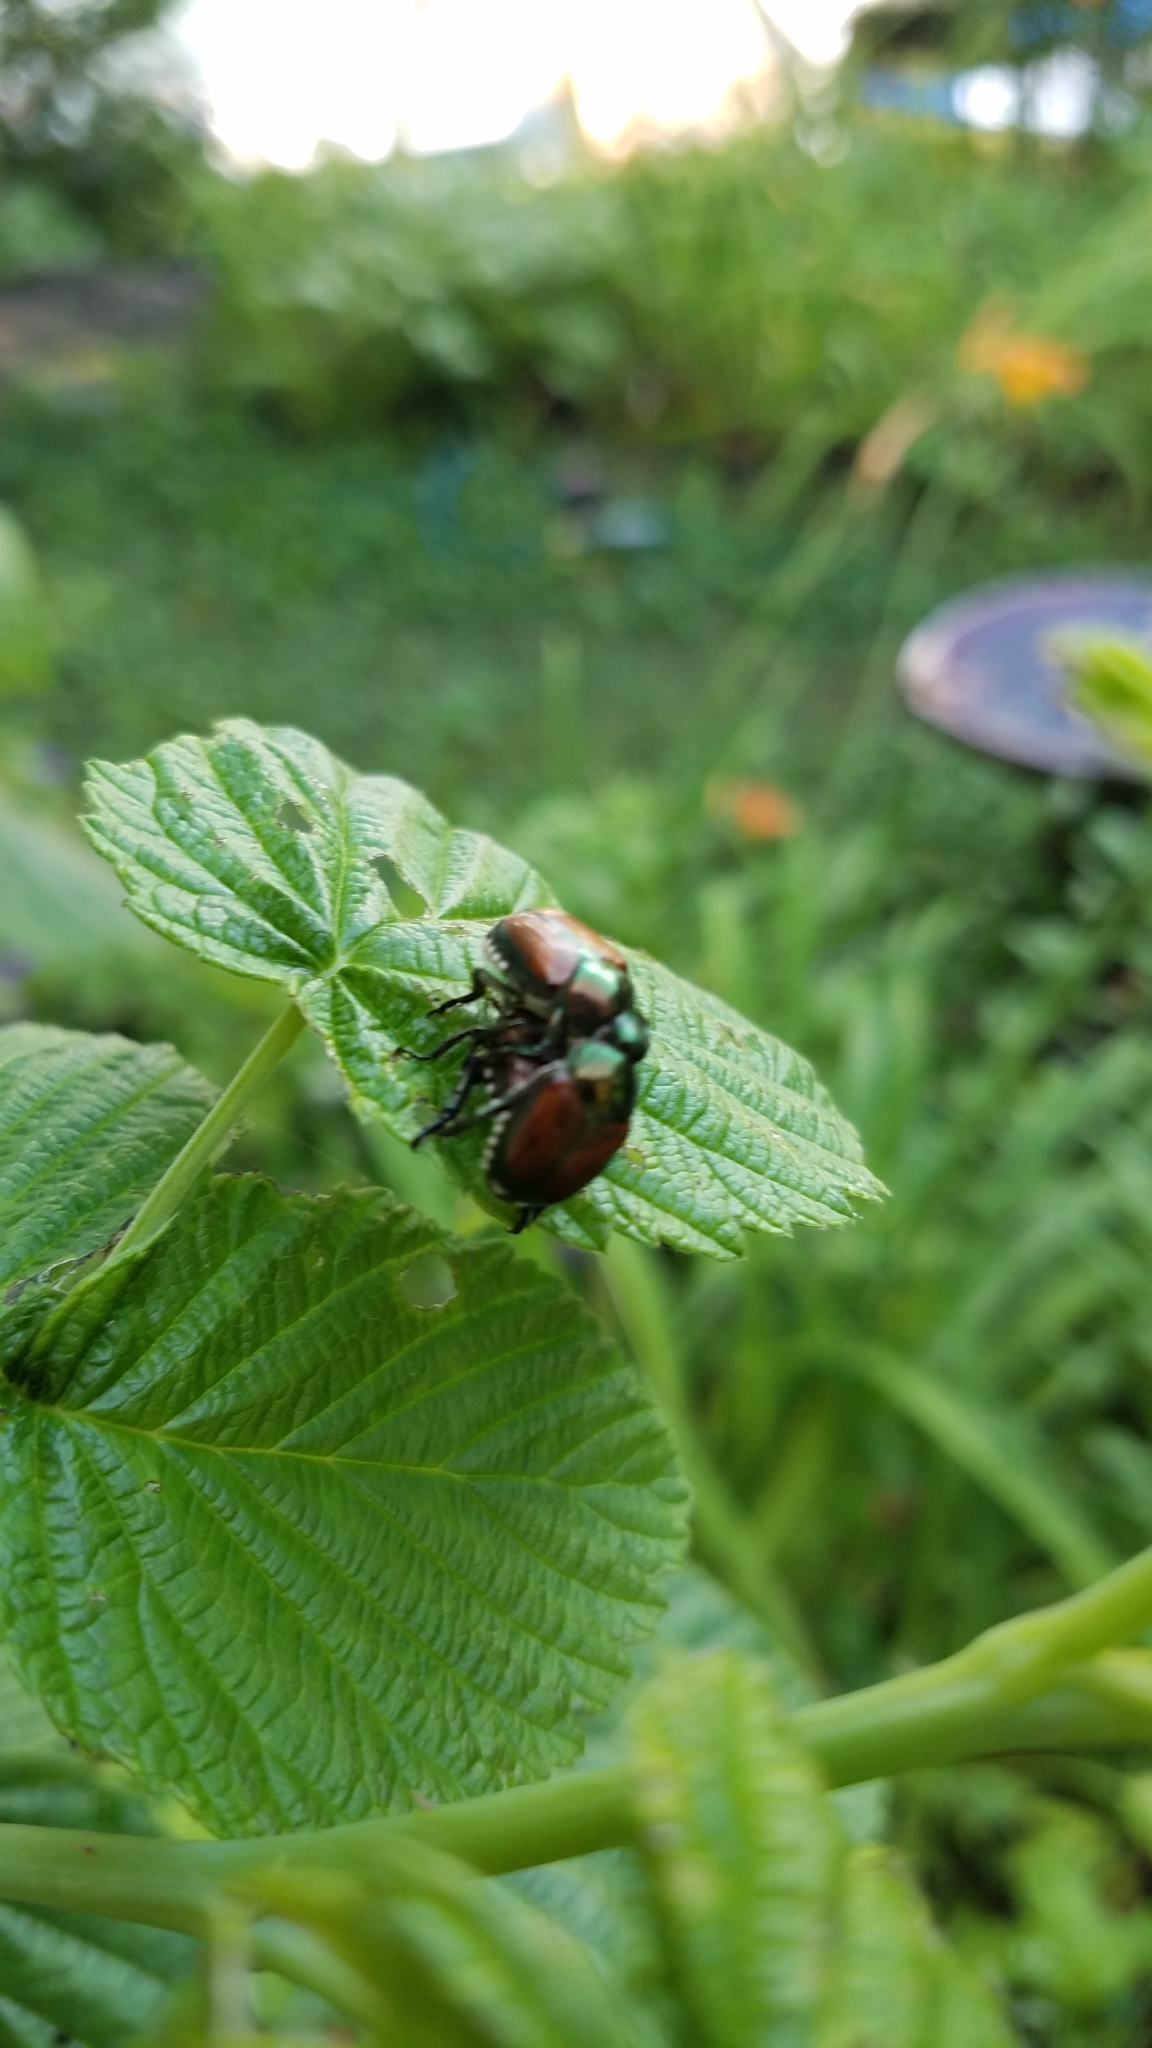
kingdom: Animalia
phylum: Arthropoda
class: Insecta
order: Coleoptera
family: Scarabaeidae
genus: Popillia
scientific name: Popillia japonica
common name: Japanese beetle
